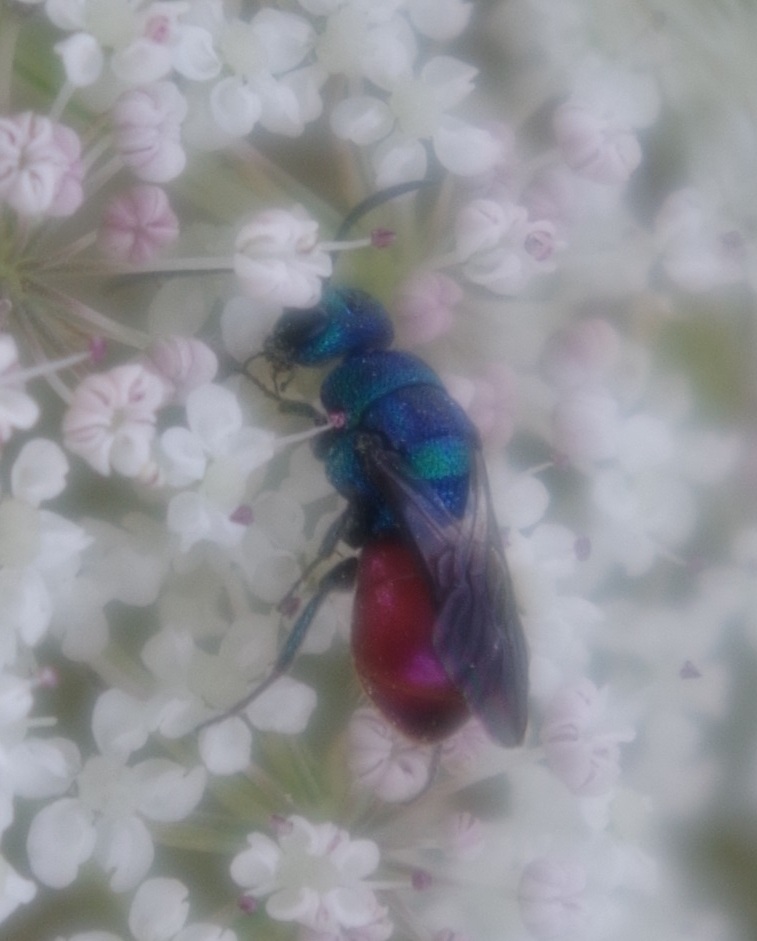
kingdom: Animalia
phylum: Arthropoda
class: Insecta
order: Hymenoptera
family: Chrysididae
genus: Hedychridium
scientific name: Hedychridium roseum
